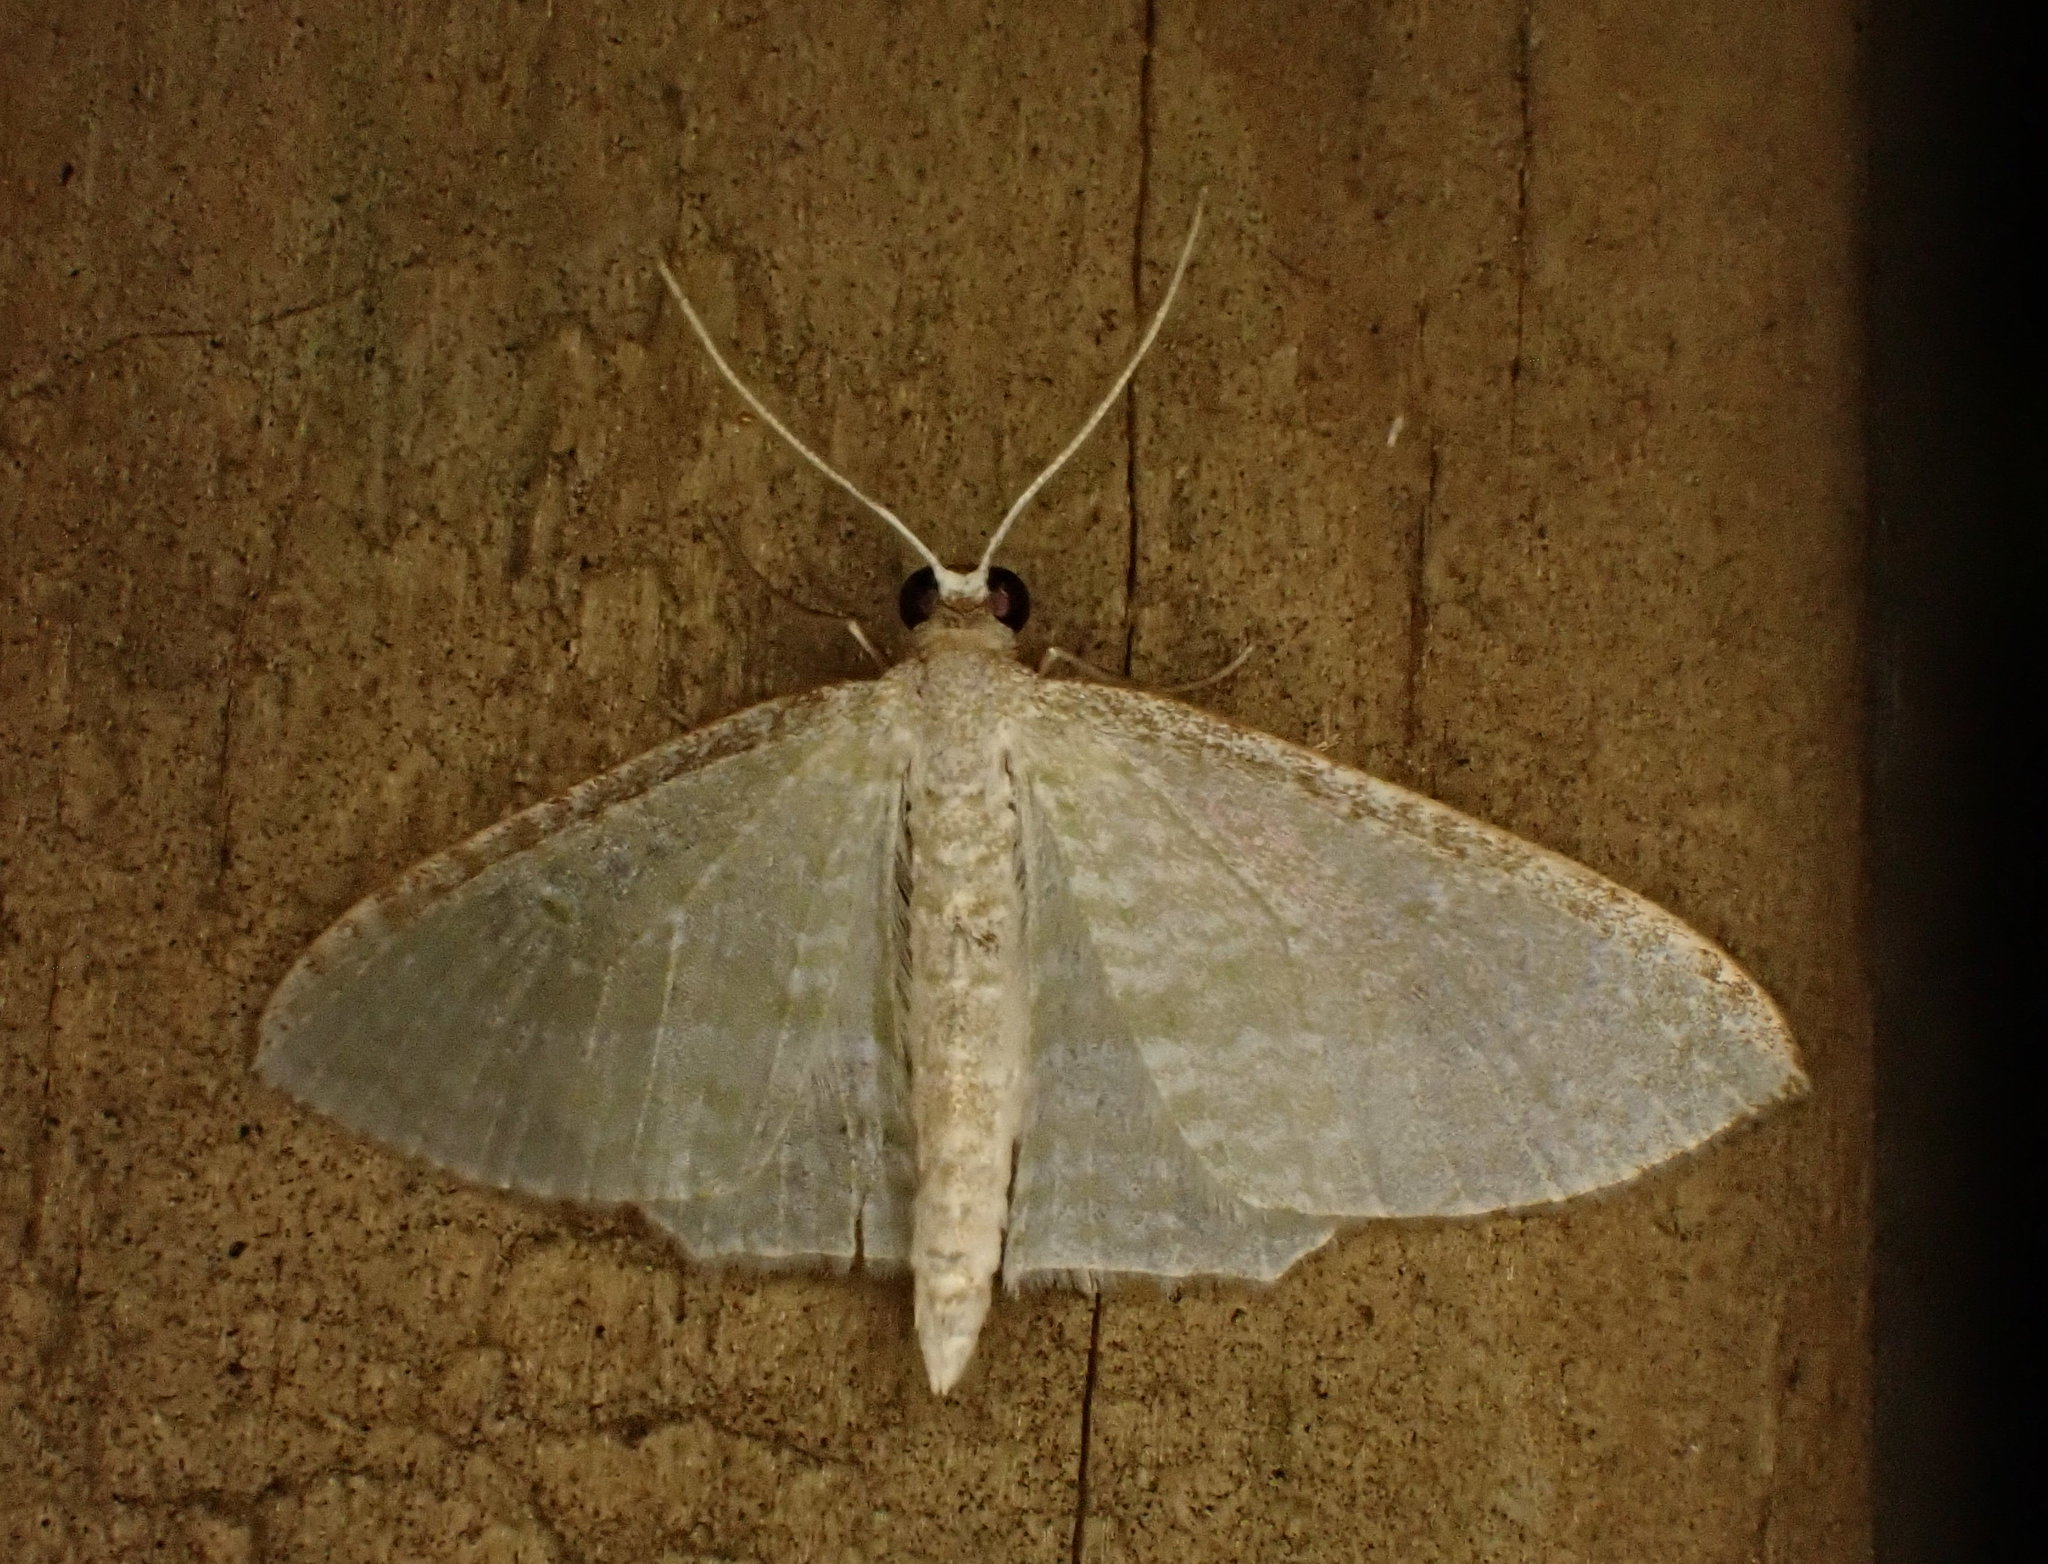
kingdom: Animalia
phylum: Arthropoda
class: Insecta
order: Lepidoptera
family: Geometridae
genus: Poecilasthena
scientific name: Poecilasthena pulchraria
